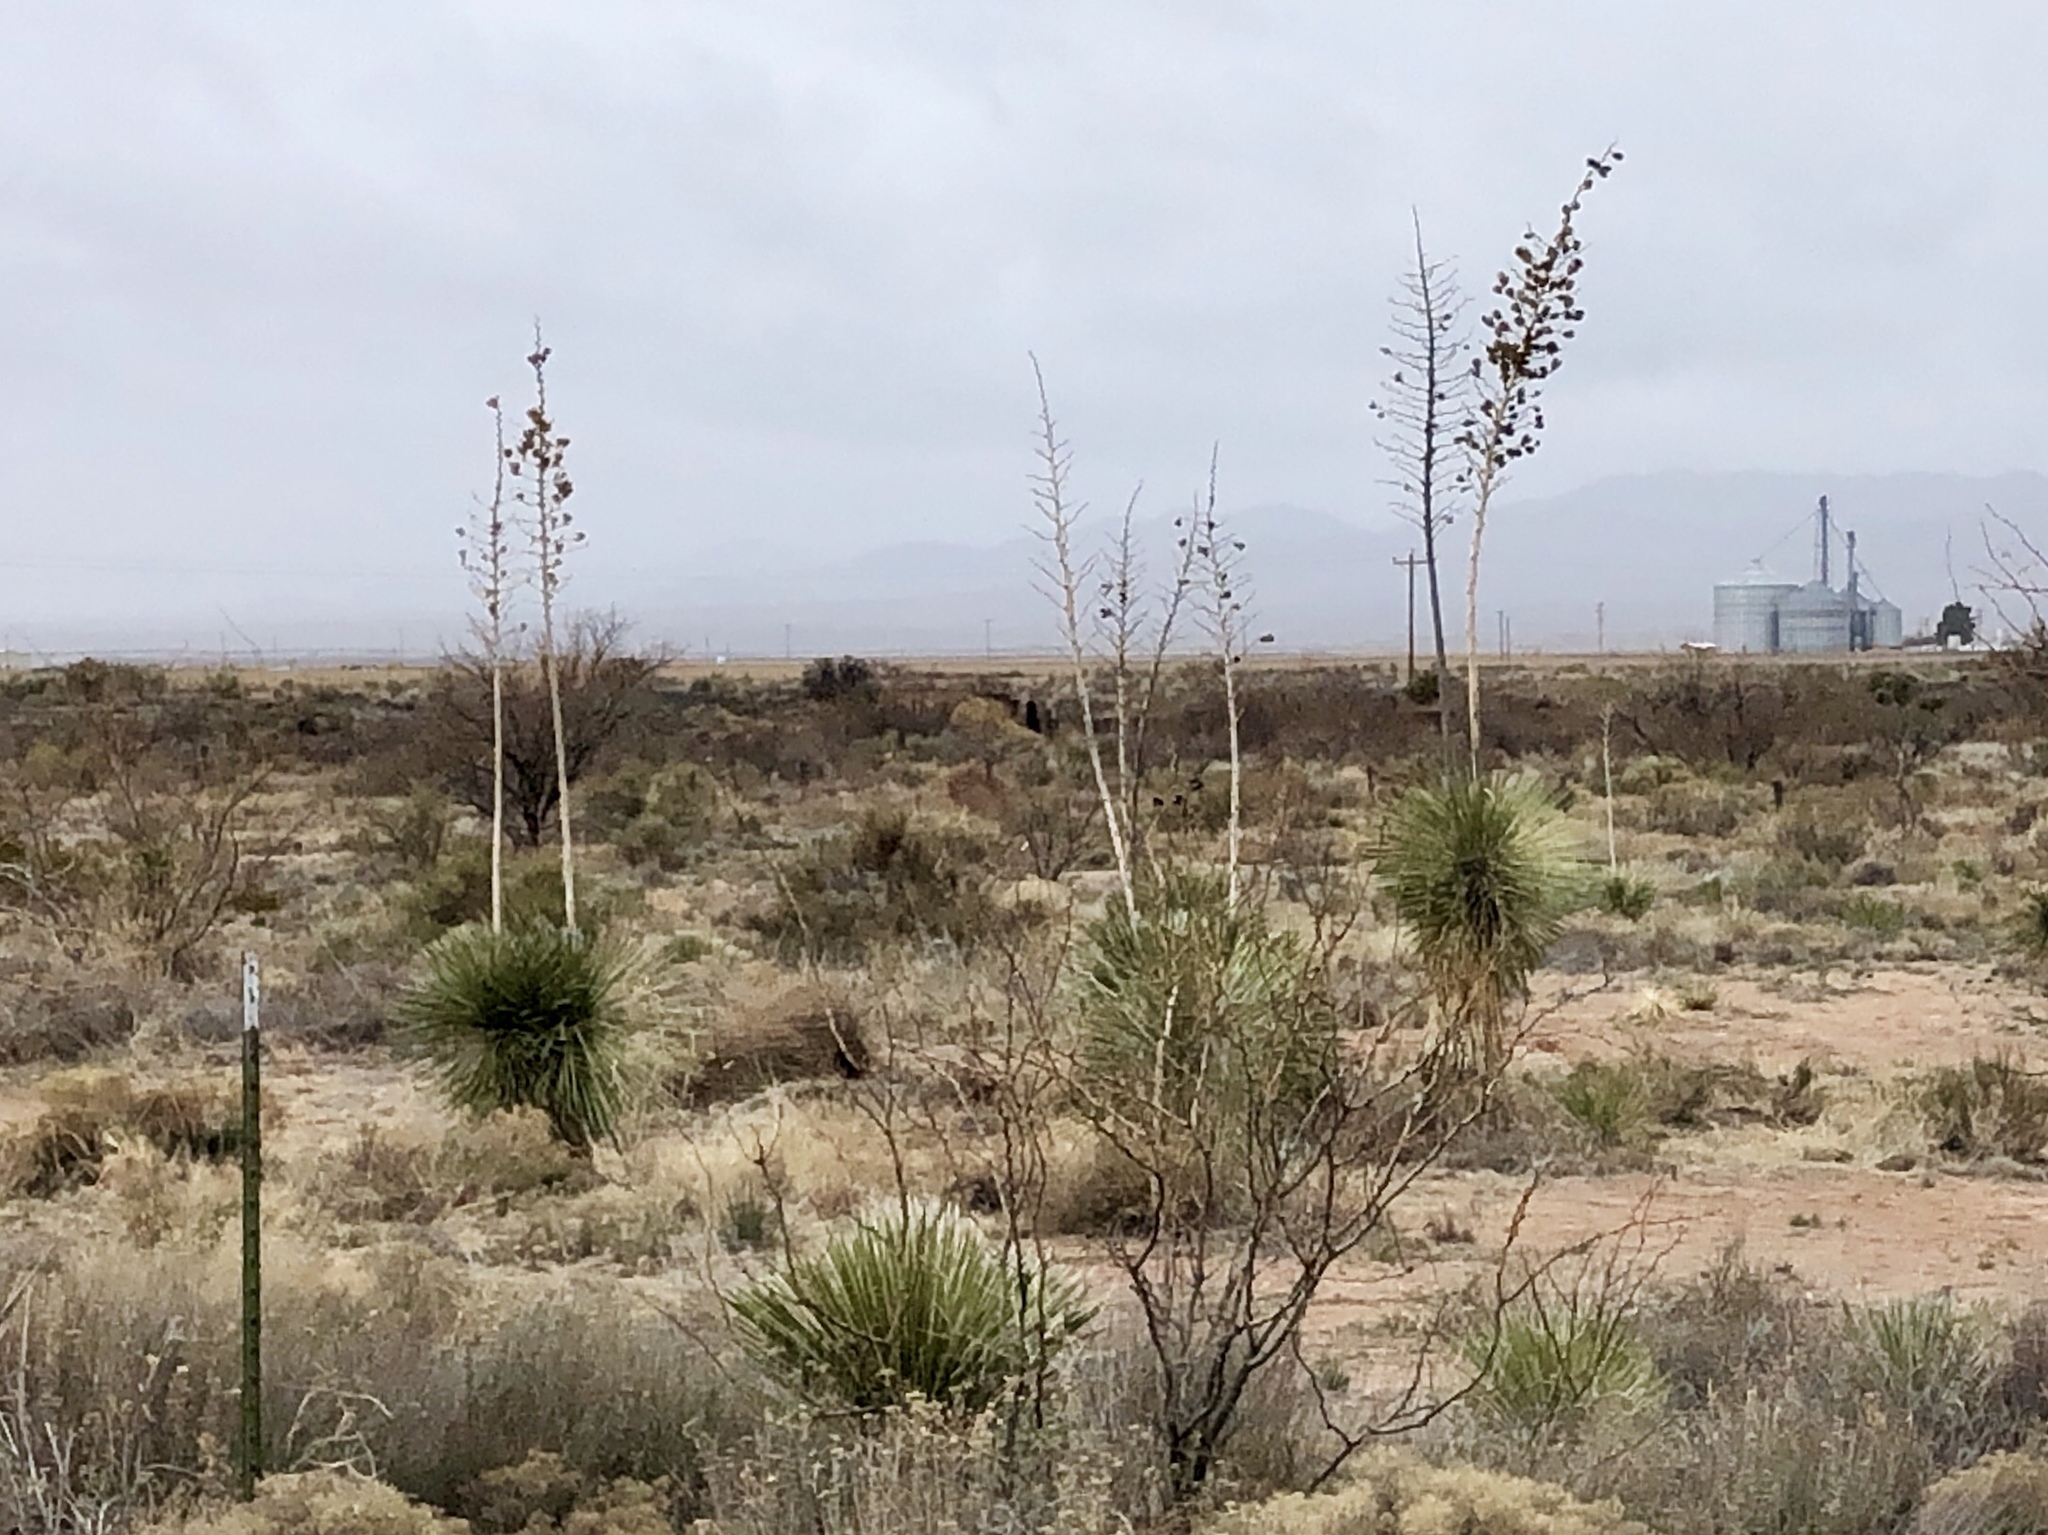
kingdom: Plantae
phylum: Tracheophyta
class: Liliopsida
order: Asparagales
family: Asparagaceae
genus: Yucca
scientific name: Yucca elata
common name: Palmella
